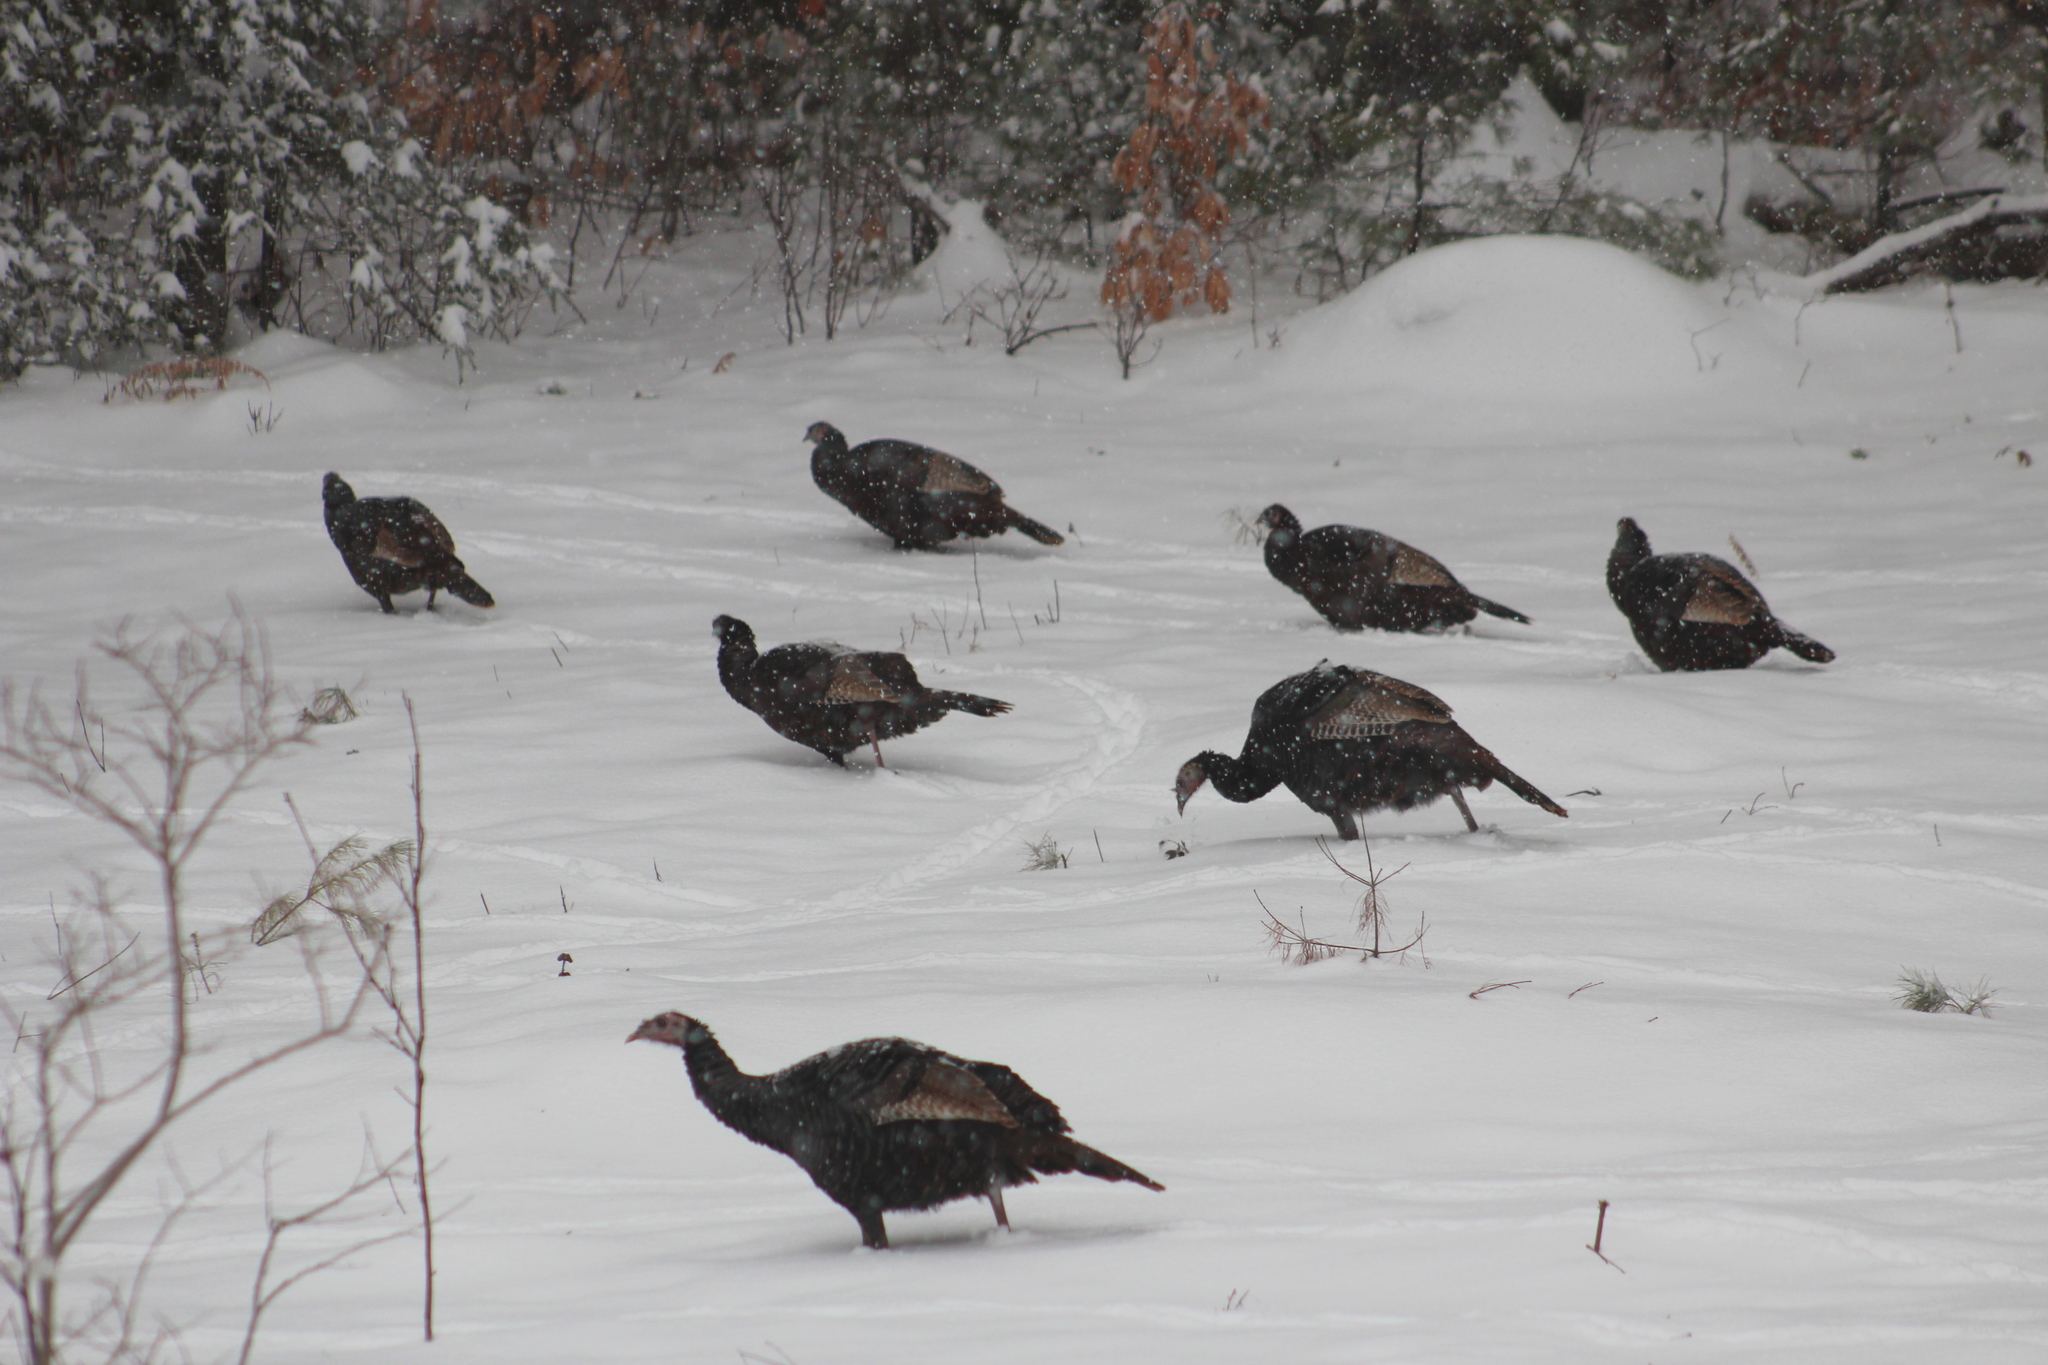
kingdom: Animalia
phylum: Chordata
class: Aves
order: Galliformes
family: Phasianidae
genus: Meleagris
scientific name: Meleagris gallopavo
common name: Wild turkey
